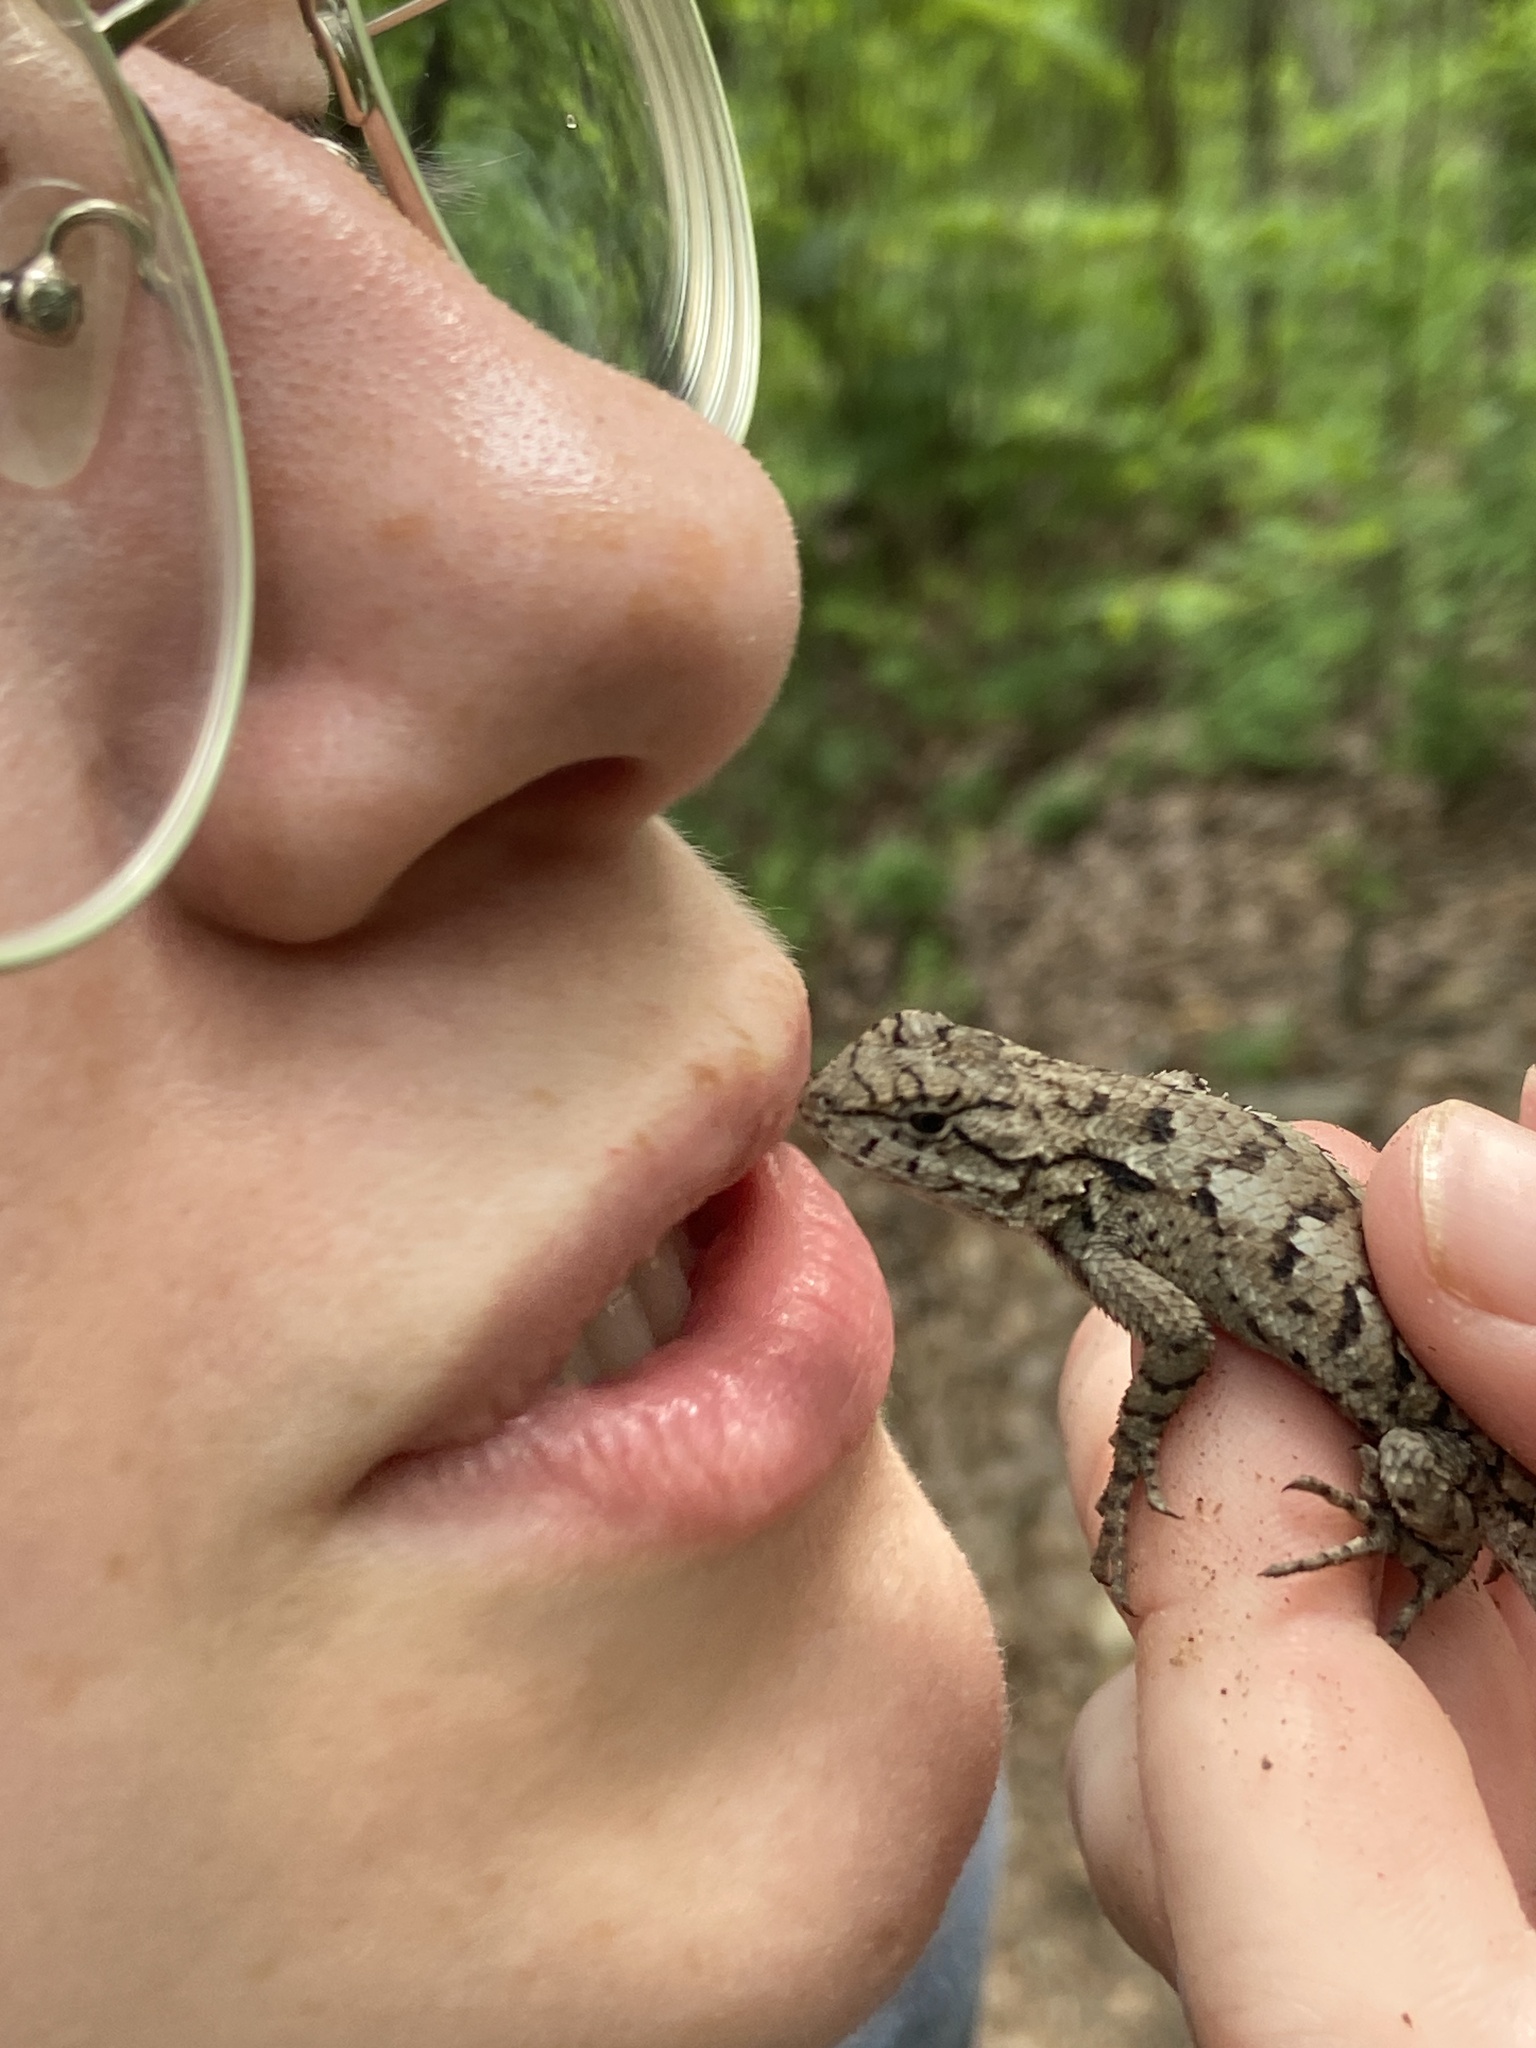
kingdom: Animalia
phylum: Chordata
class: Squamata
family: Phrynosomatidae
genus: Sceloporus
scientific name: Sceloporus undulatus
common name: Eastern fence lizard
